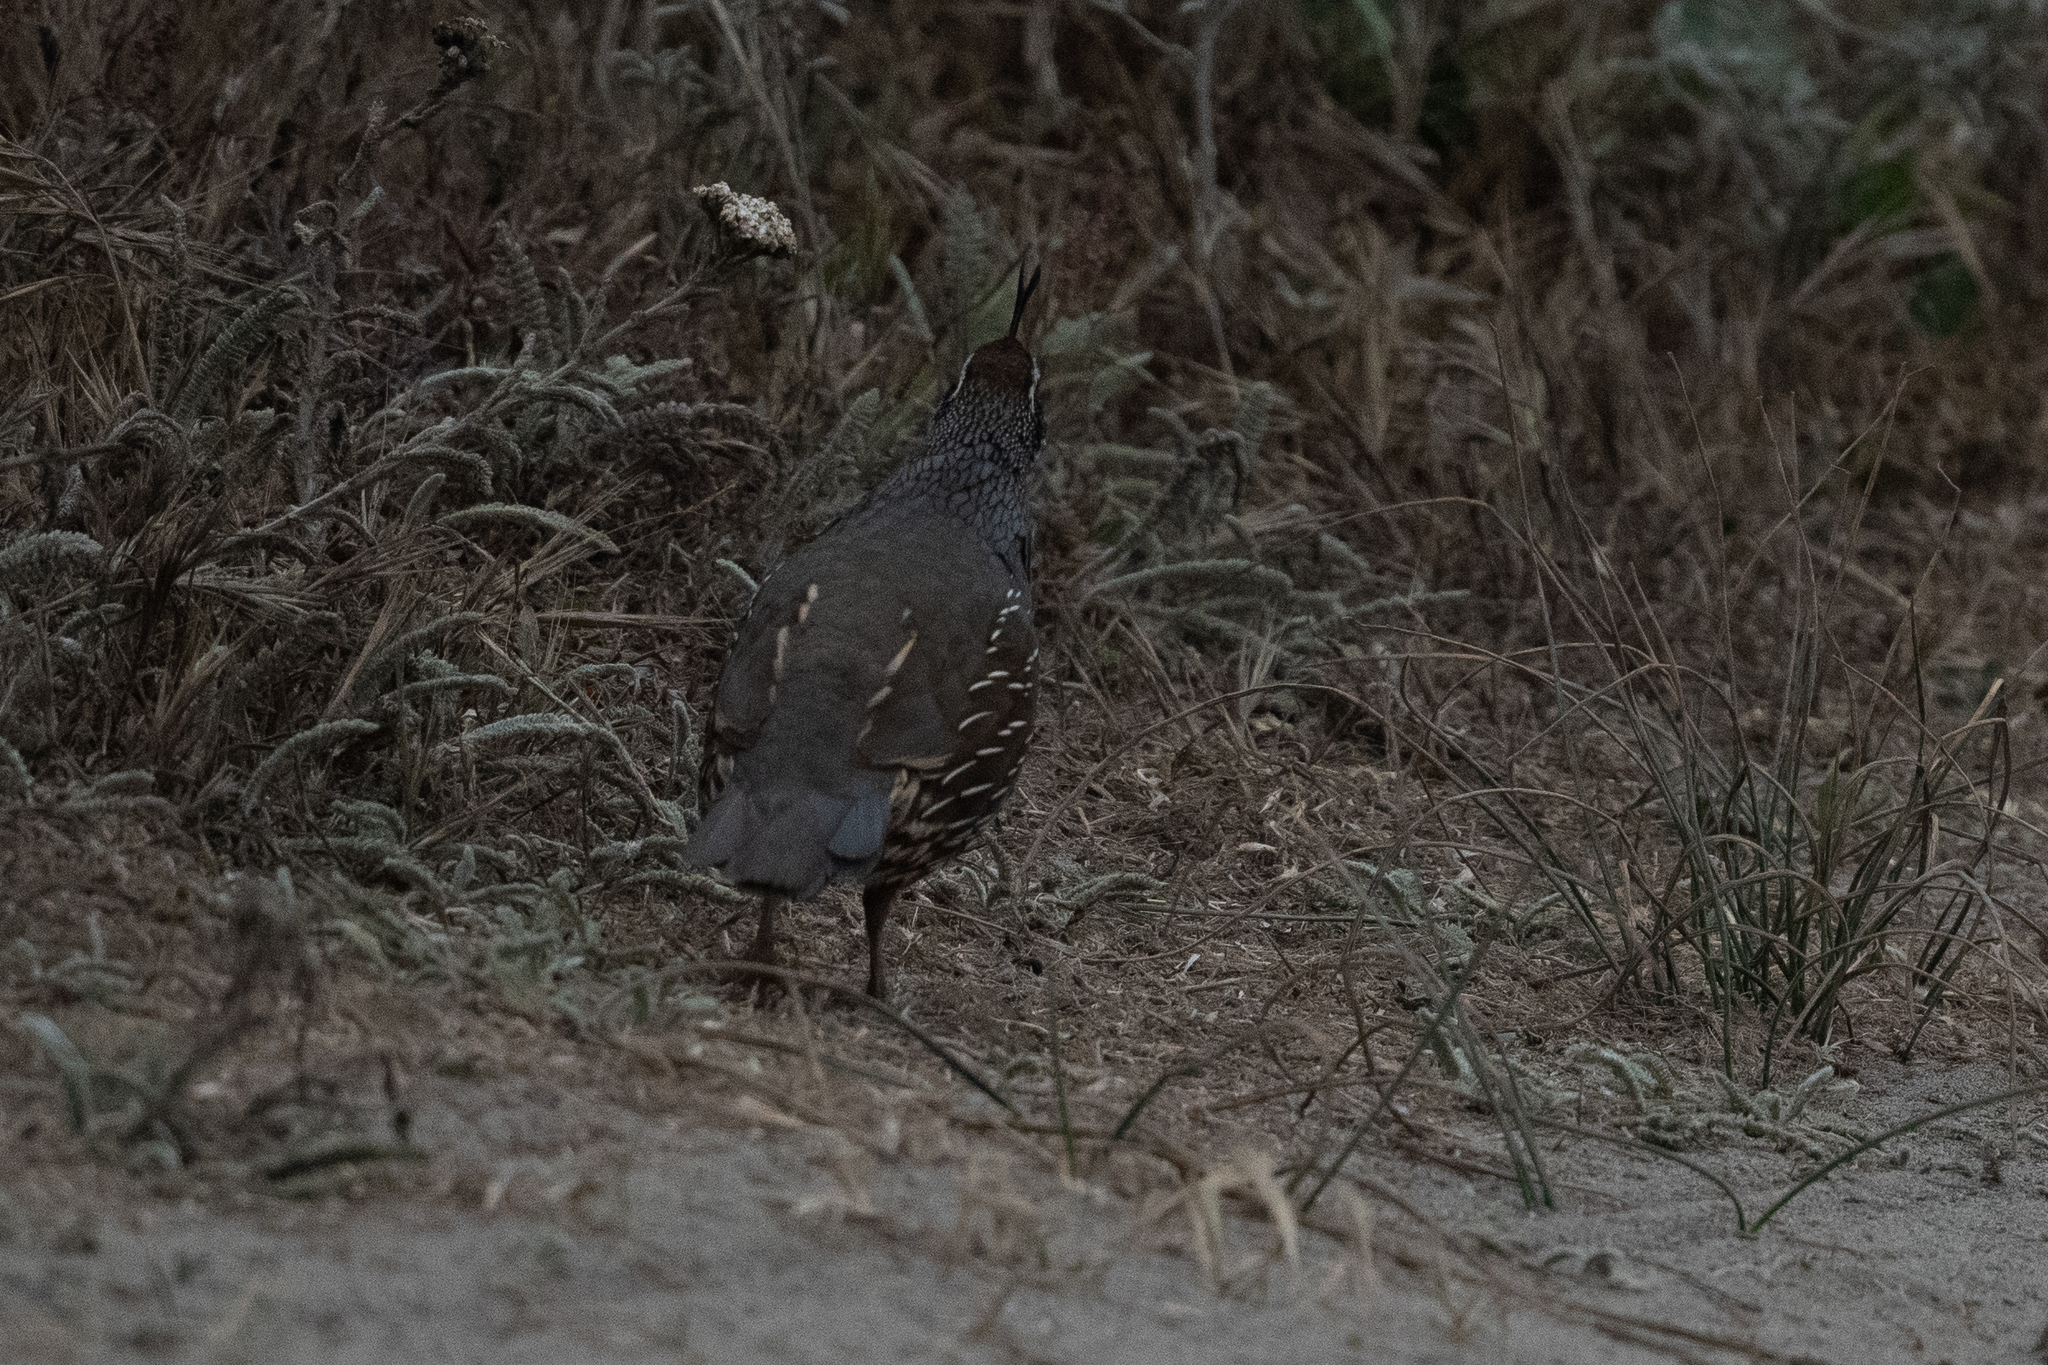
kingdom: Animalia
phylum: Chordata
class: Aves
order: Galliformes
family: Odontophoridae
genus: Callipepla
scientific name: Callipepla californica
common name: California quail
